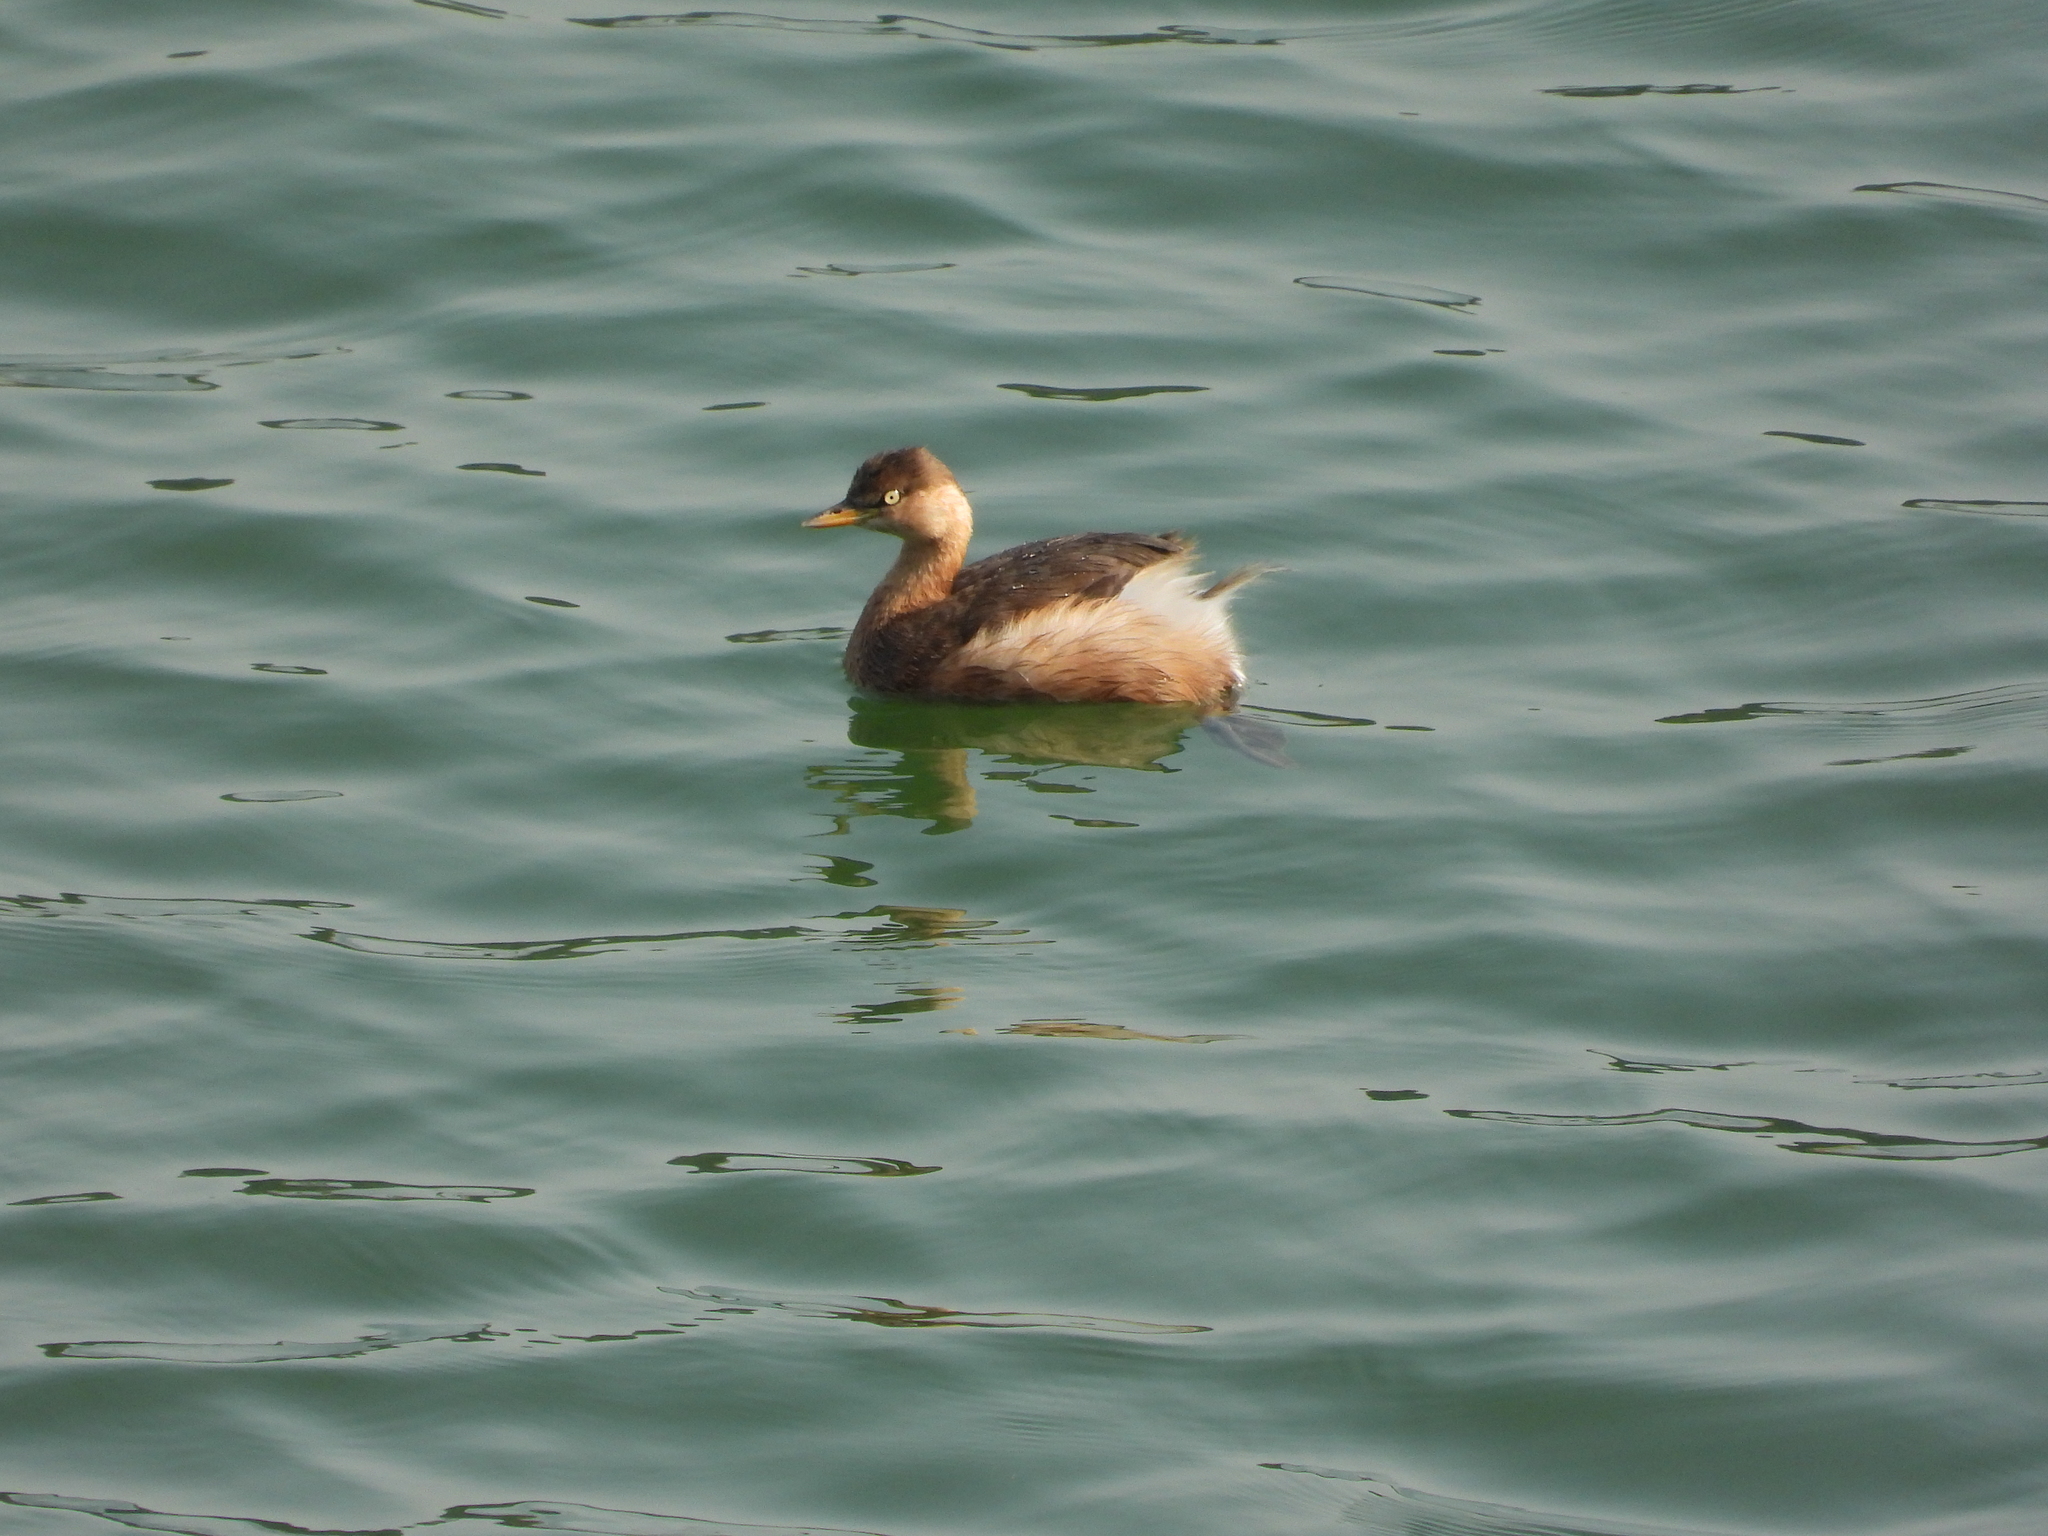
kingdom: Animalia
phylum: Chordata
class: Aves
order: Podicipediformes
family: Podicipedidae
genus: Tachybaptus
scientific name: Tachybaptus ruficollis
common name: Little grebe
